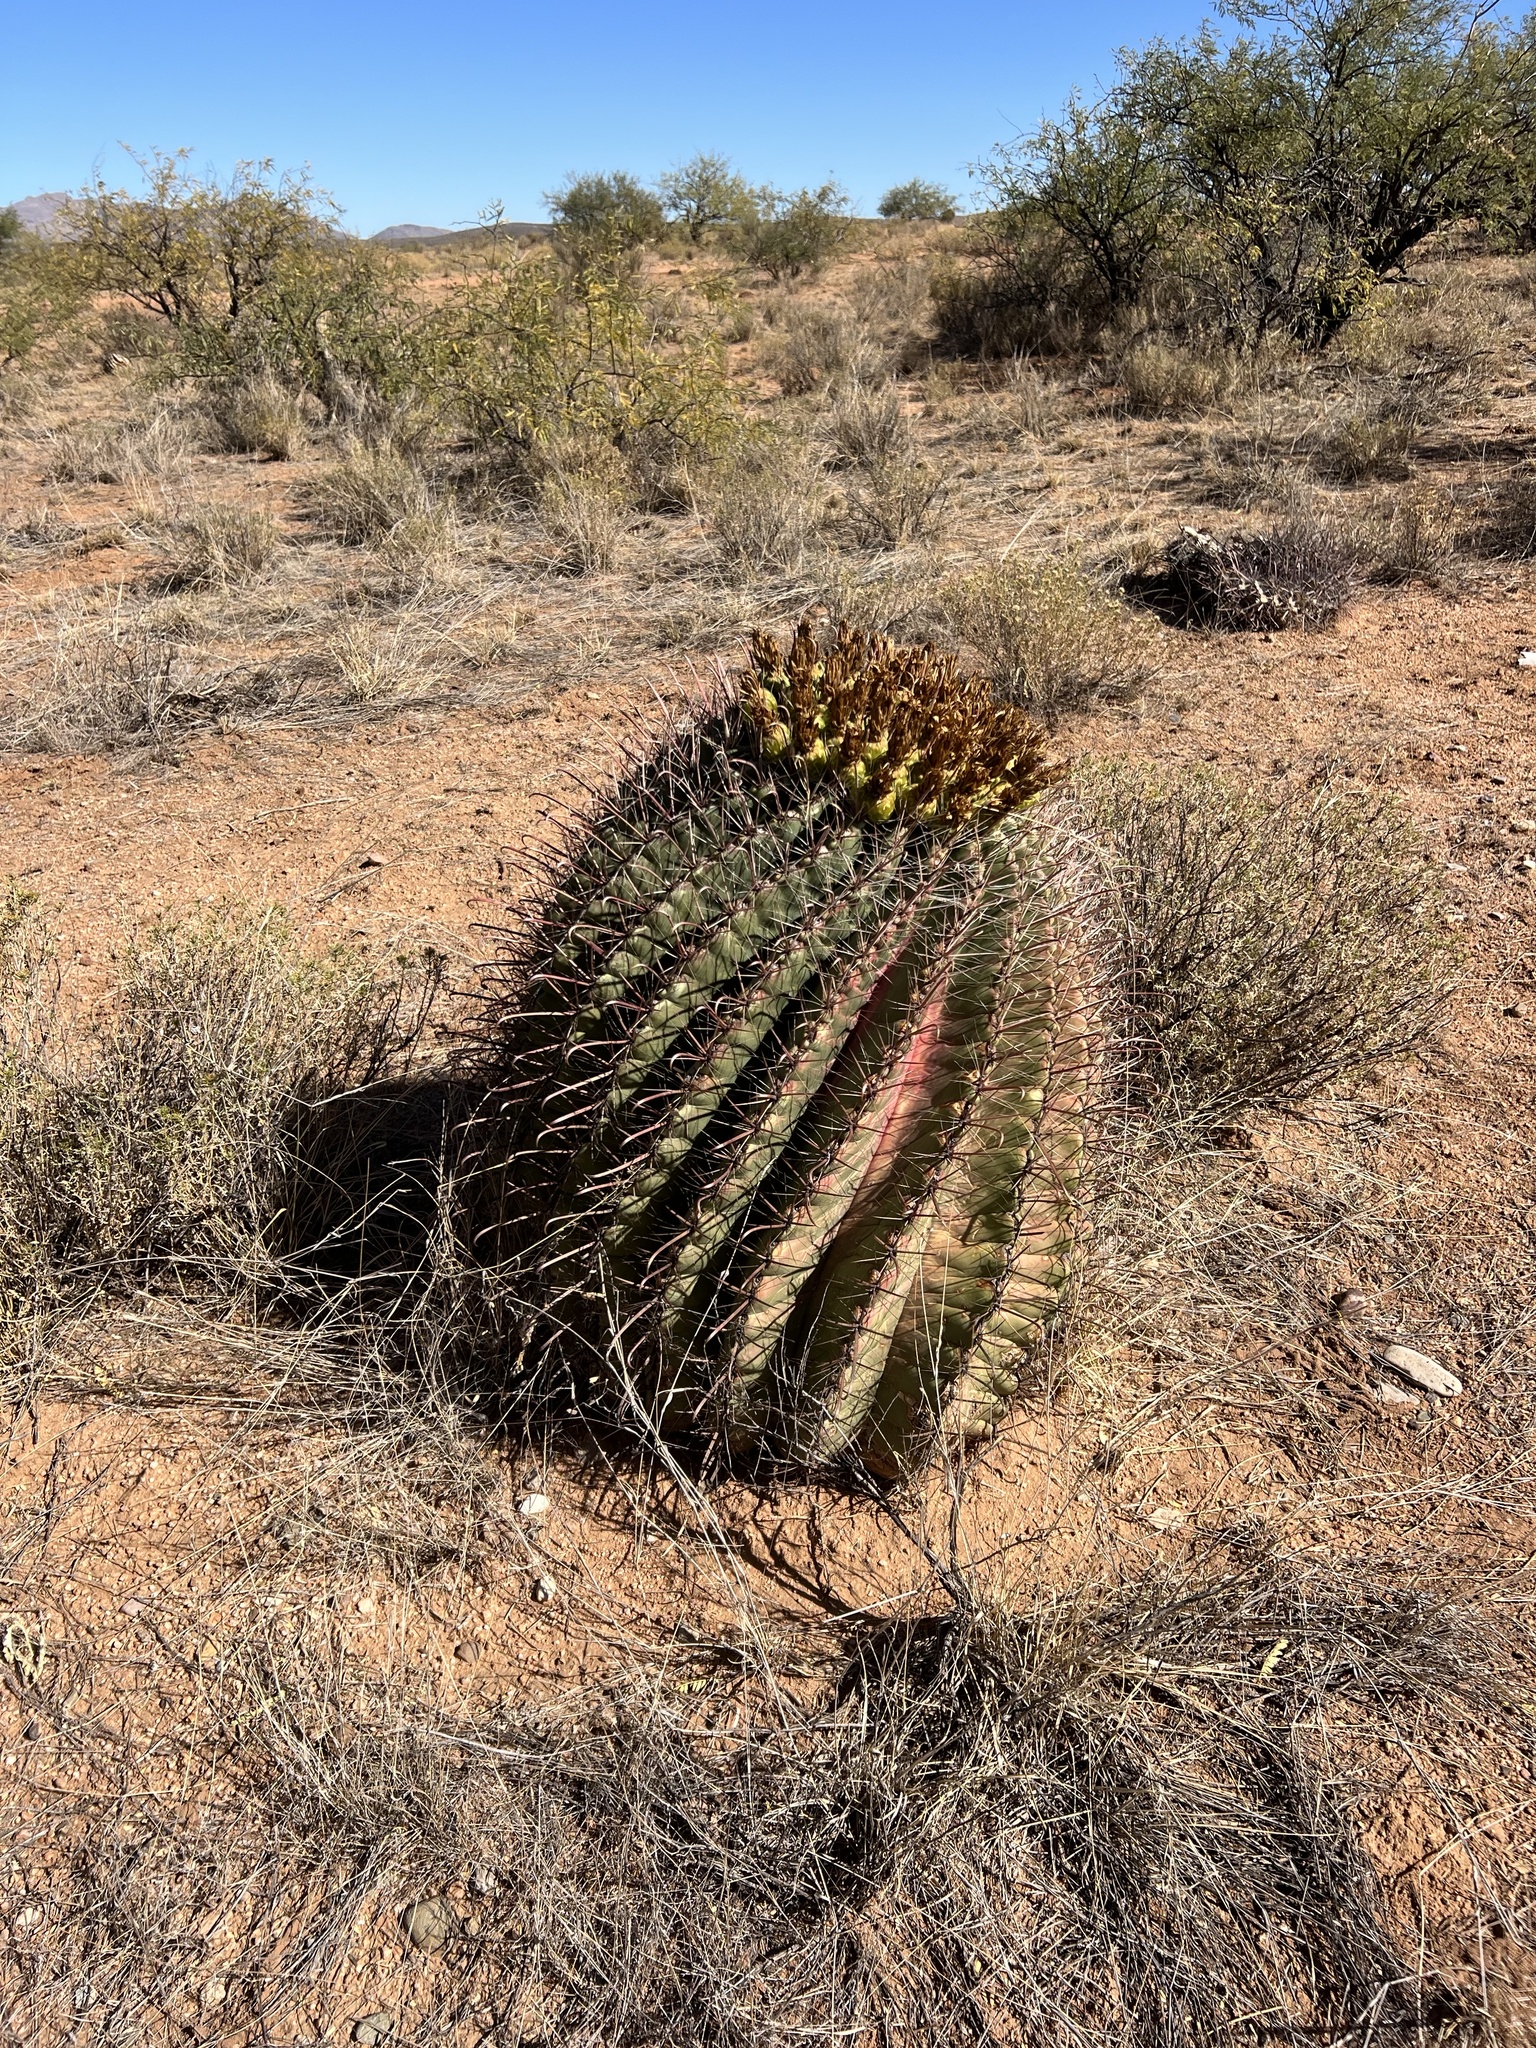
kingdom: Plantae
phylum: Tracheophyta
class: Magnoliopsida
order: Caryophyllales
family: Cactaceae
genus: Ferocactus
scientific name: Ferocactus wislizeni
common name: Candy barrel cactus
